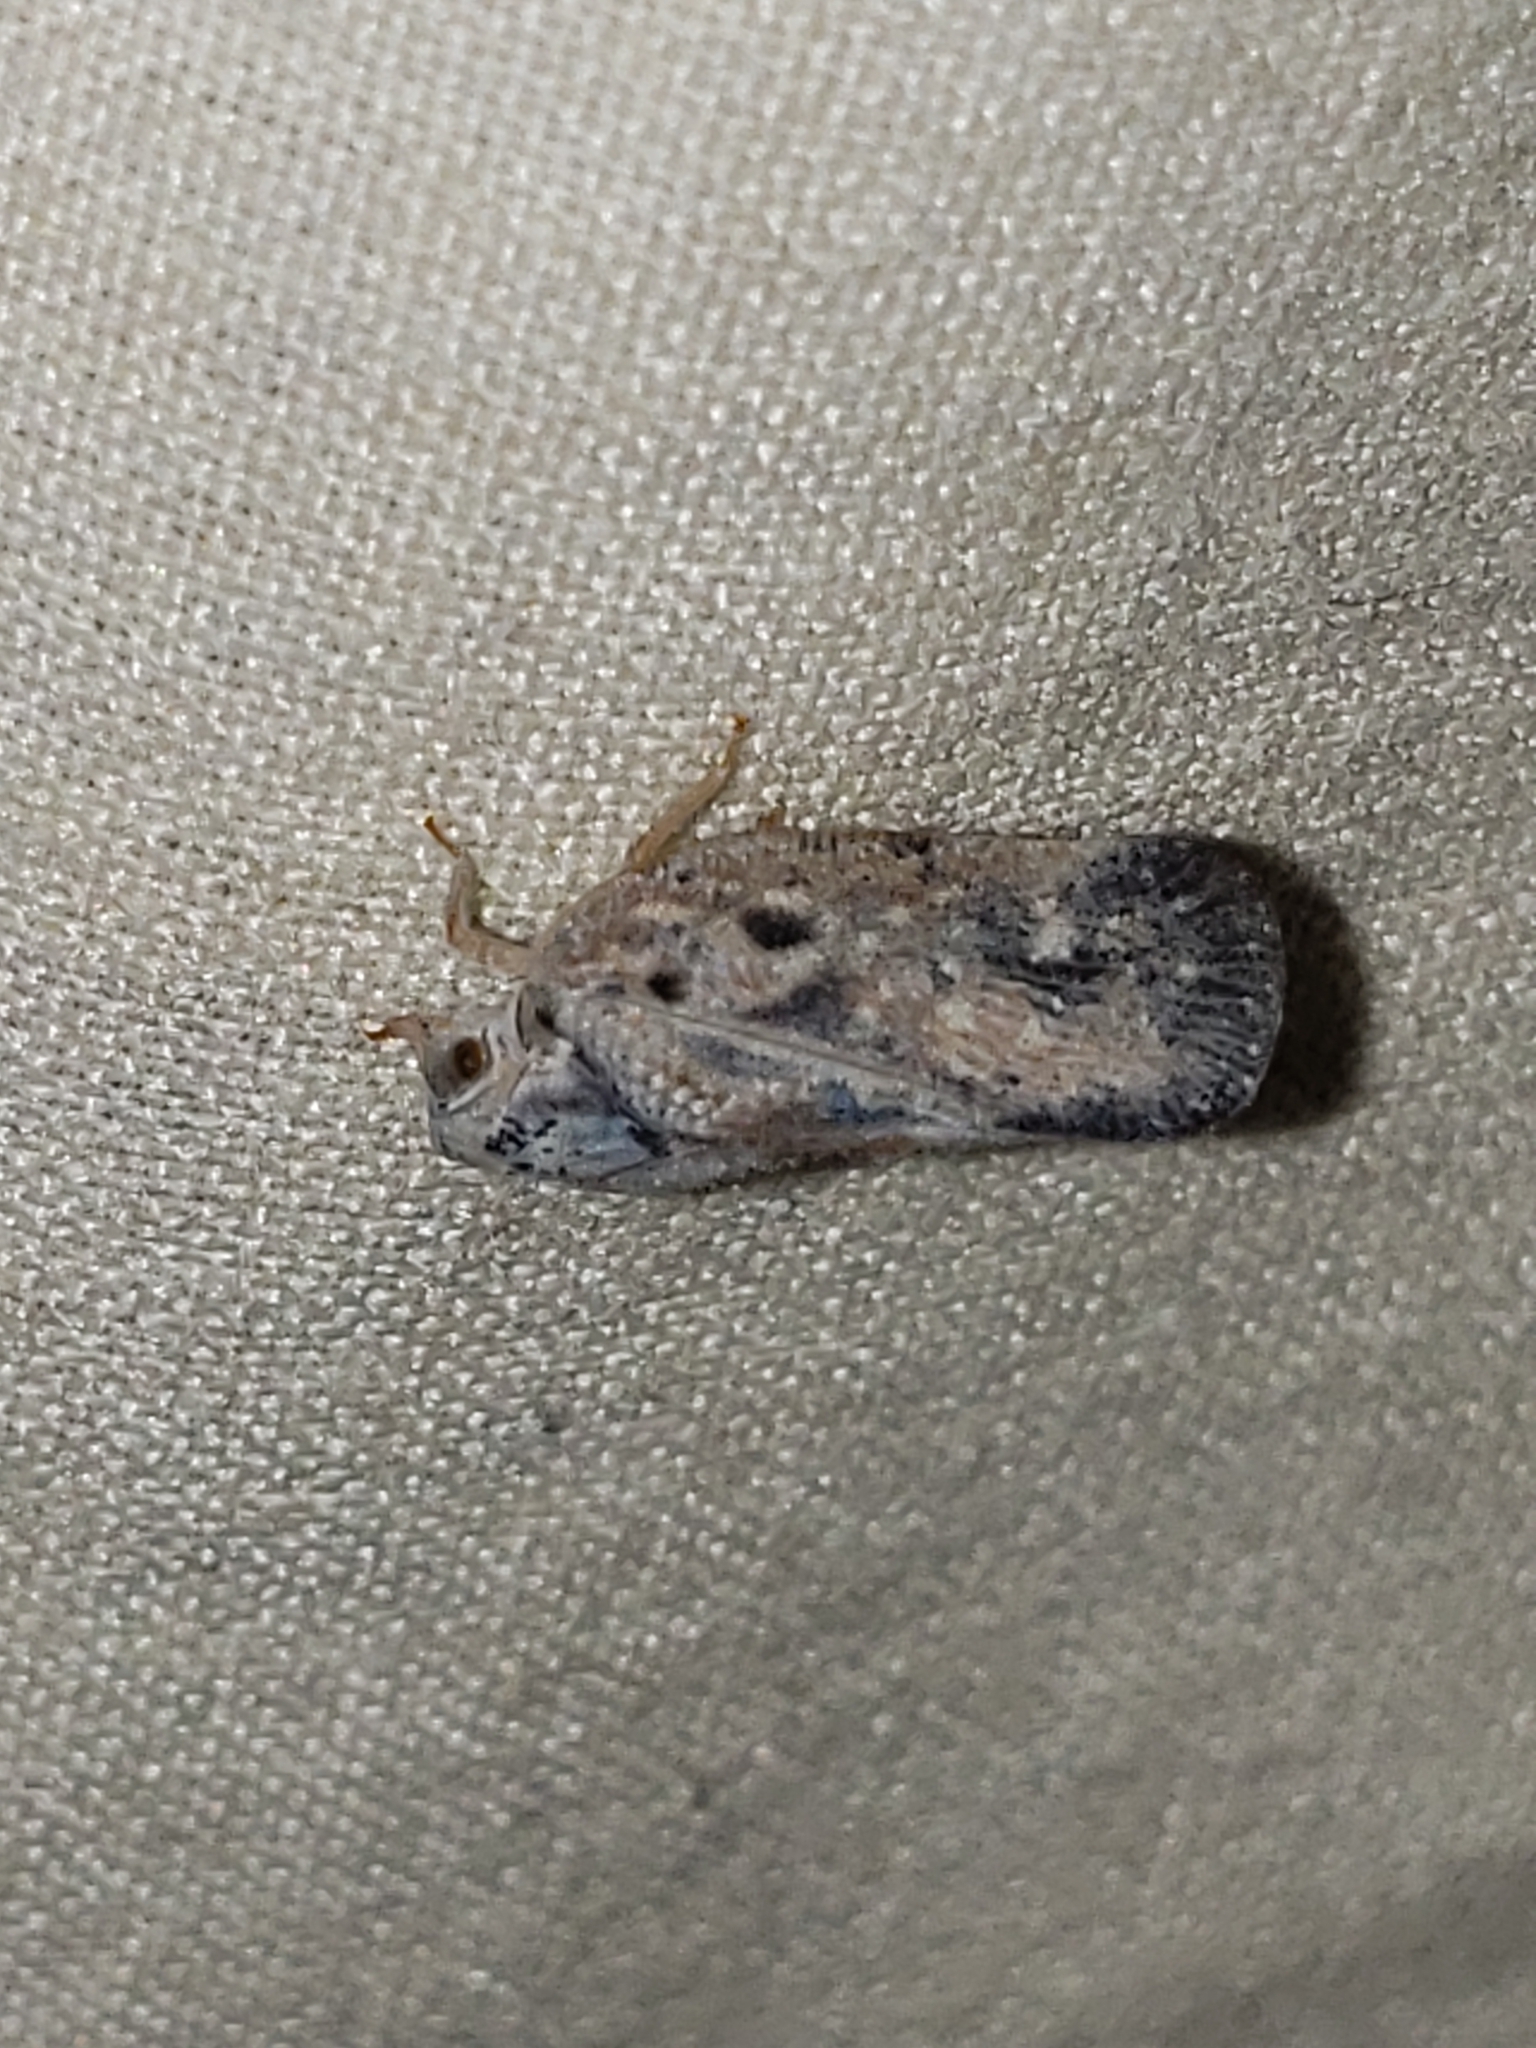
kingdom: Animalia
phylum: Arthropoda
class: Insecta
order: Hemiptera
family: Flatidae
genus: Metcalfa
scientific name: Metcalfa pruinosa
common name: Citrus flatid planthopper
